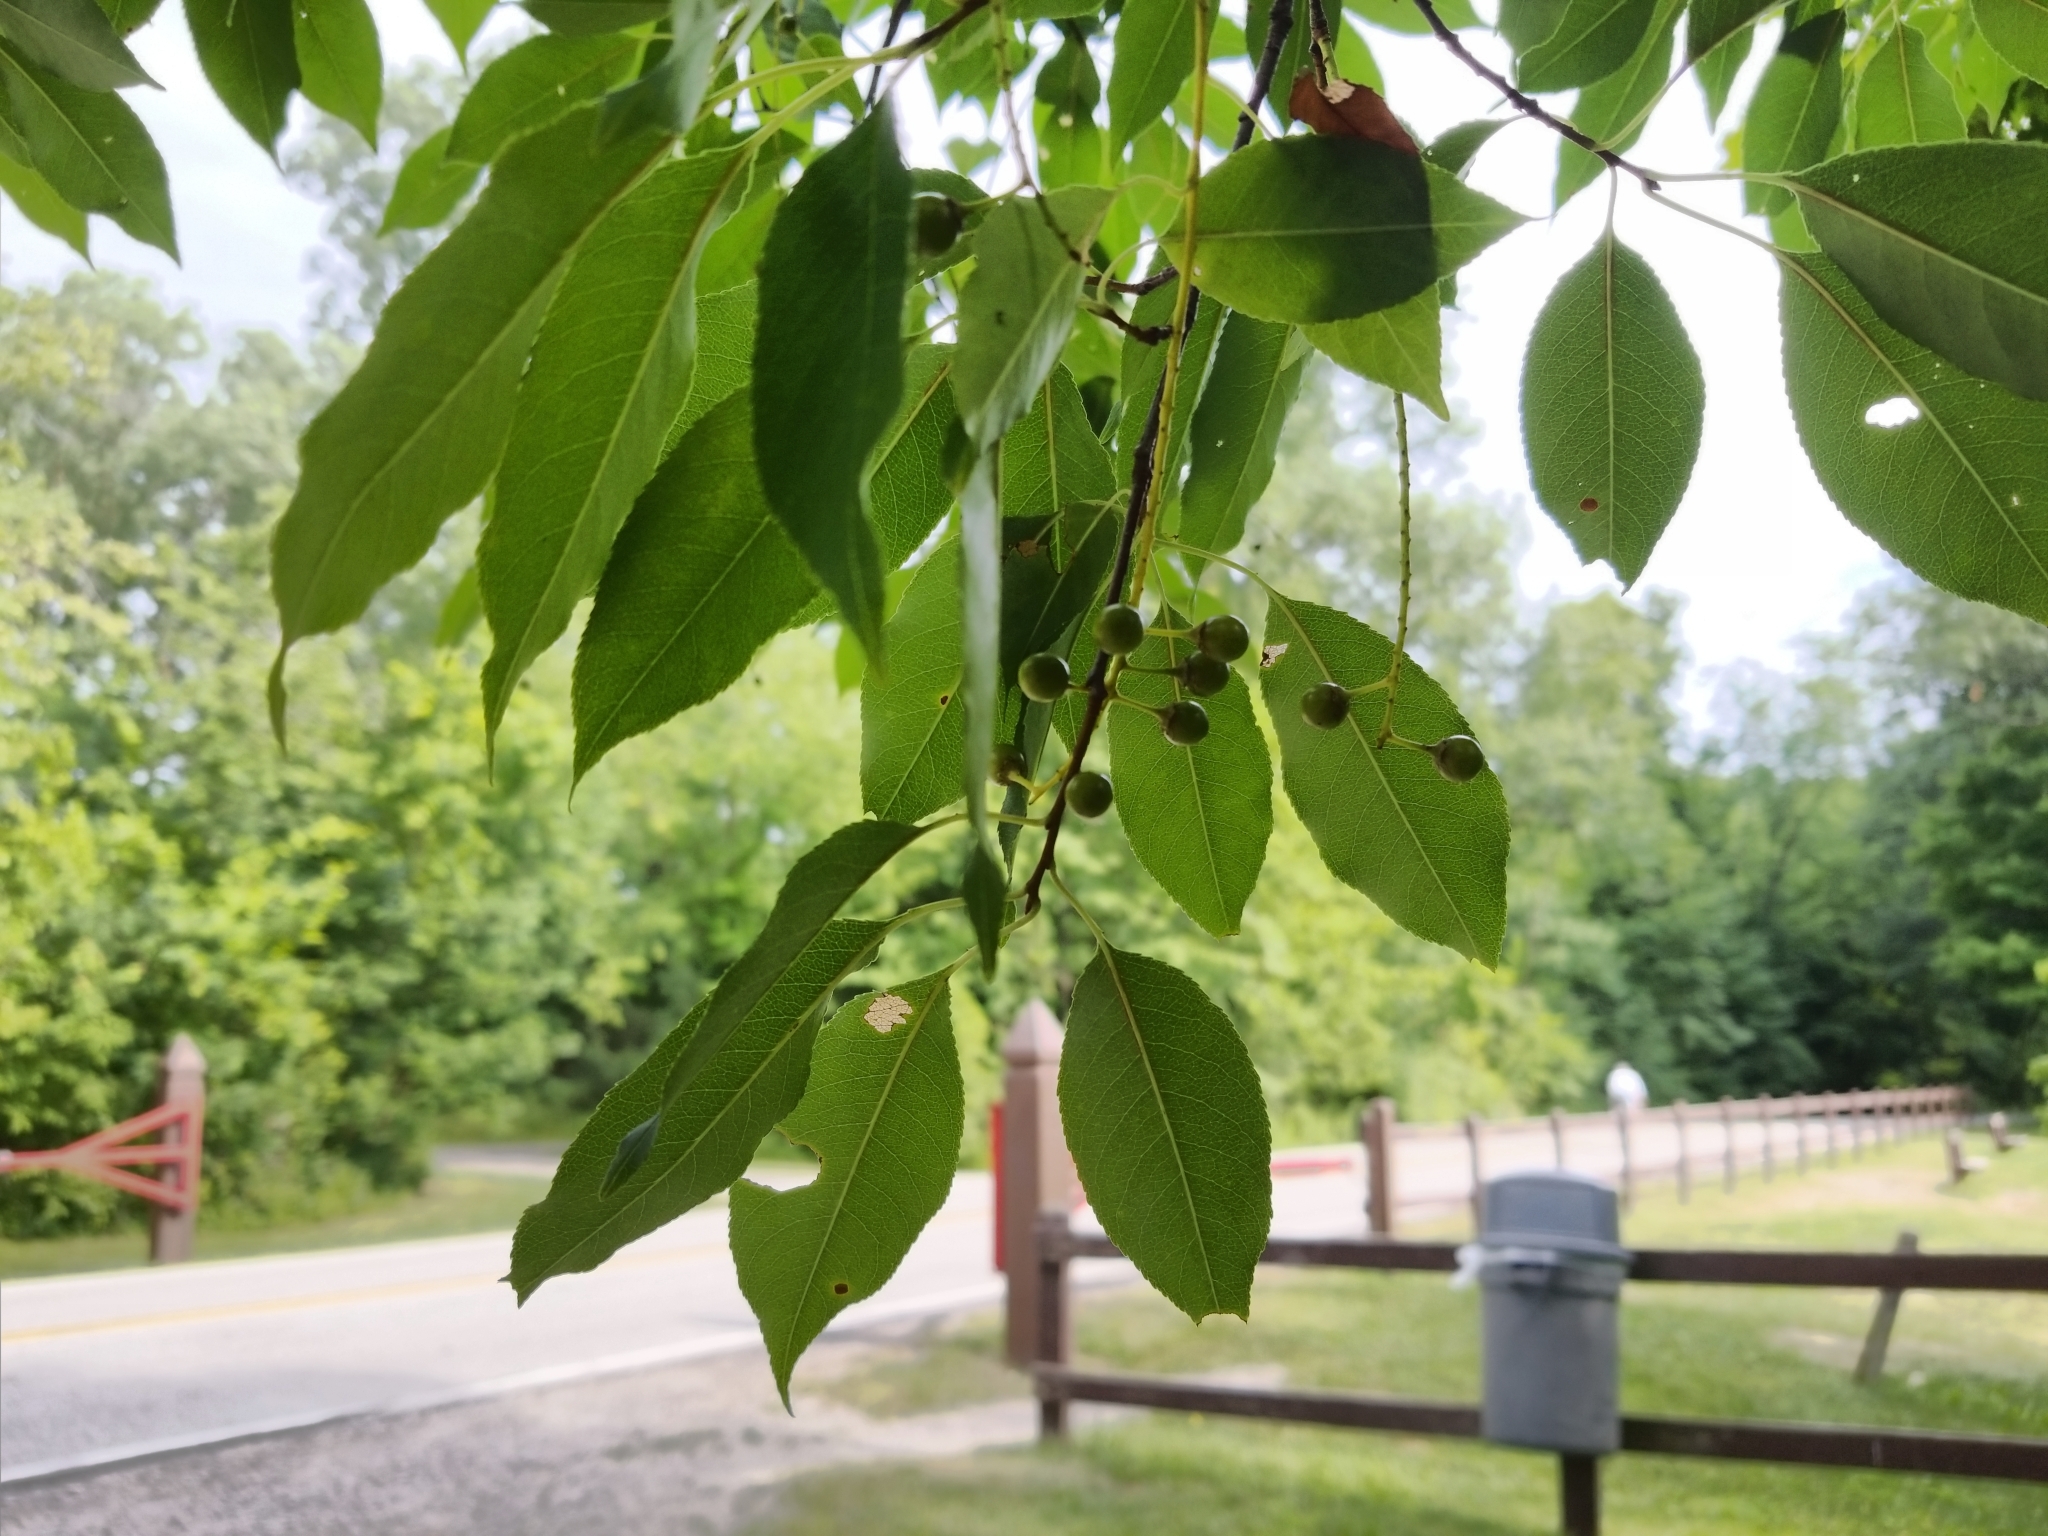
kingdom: Plantae
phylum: Tracheophyta
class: Magnoliopsida
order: Rosales
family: Rosaceae
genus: Prunus
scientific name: Prunus serotina
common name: Black cherry
